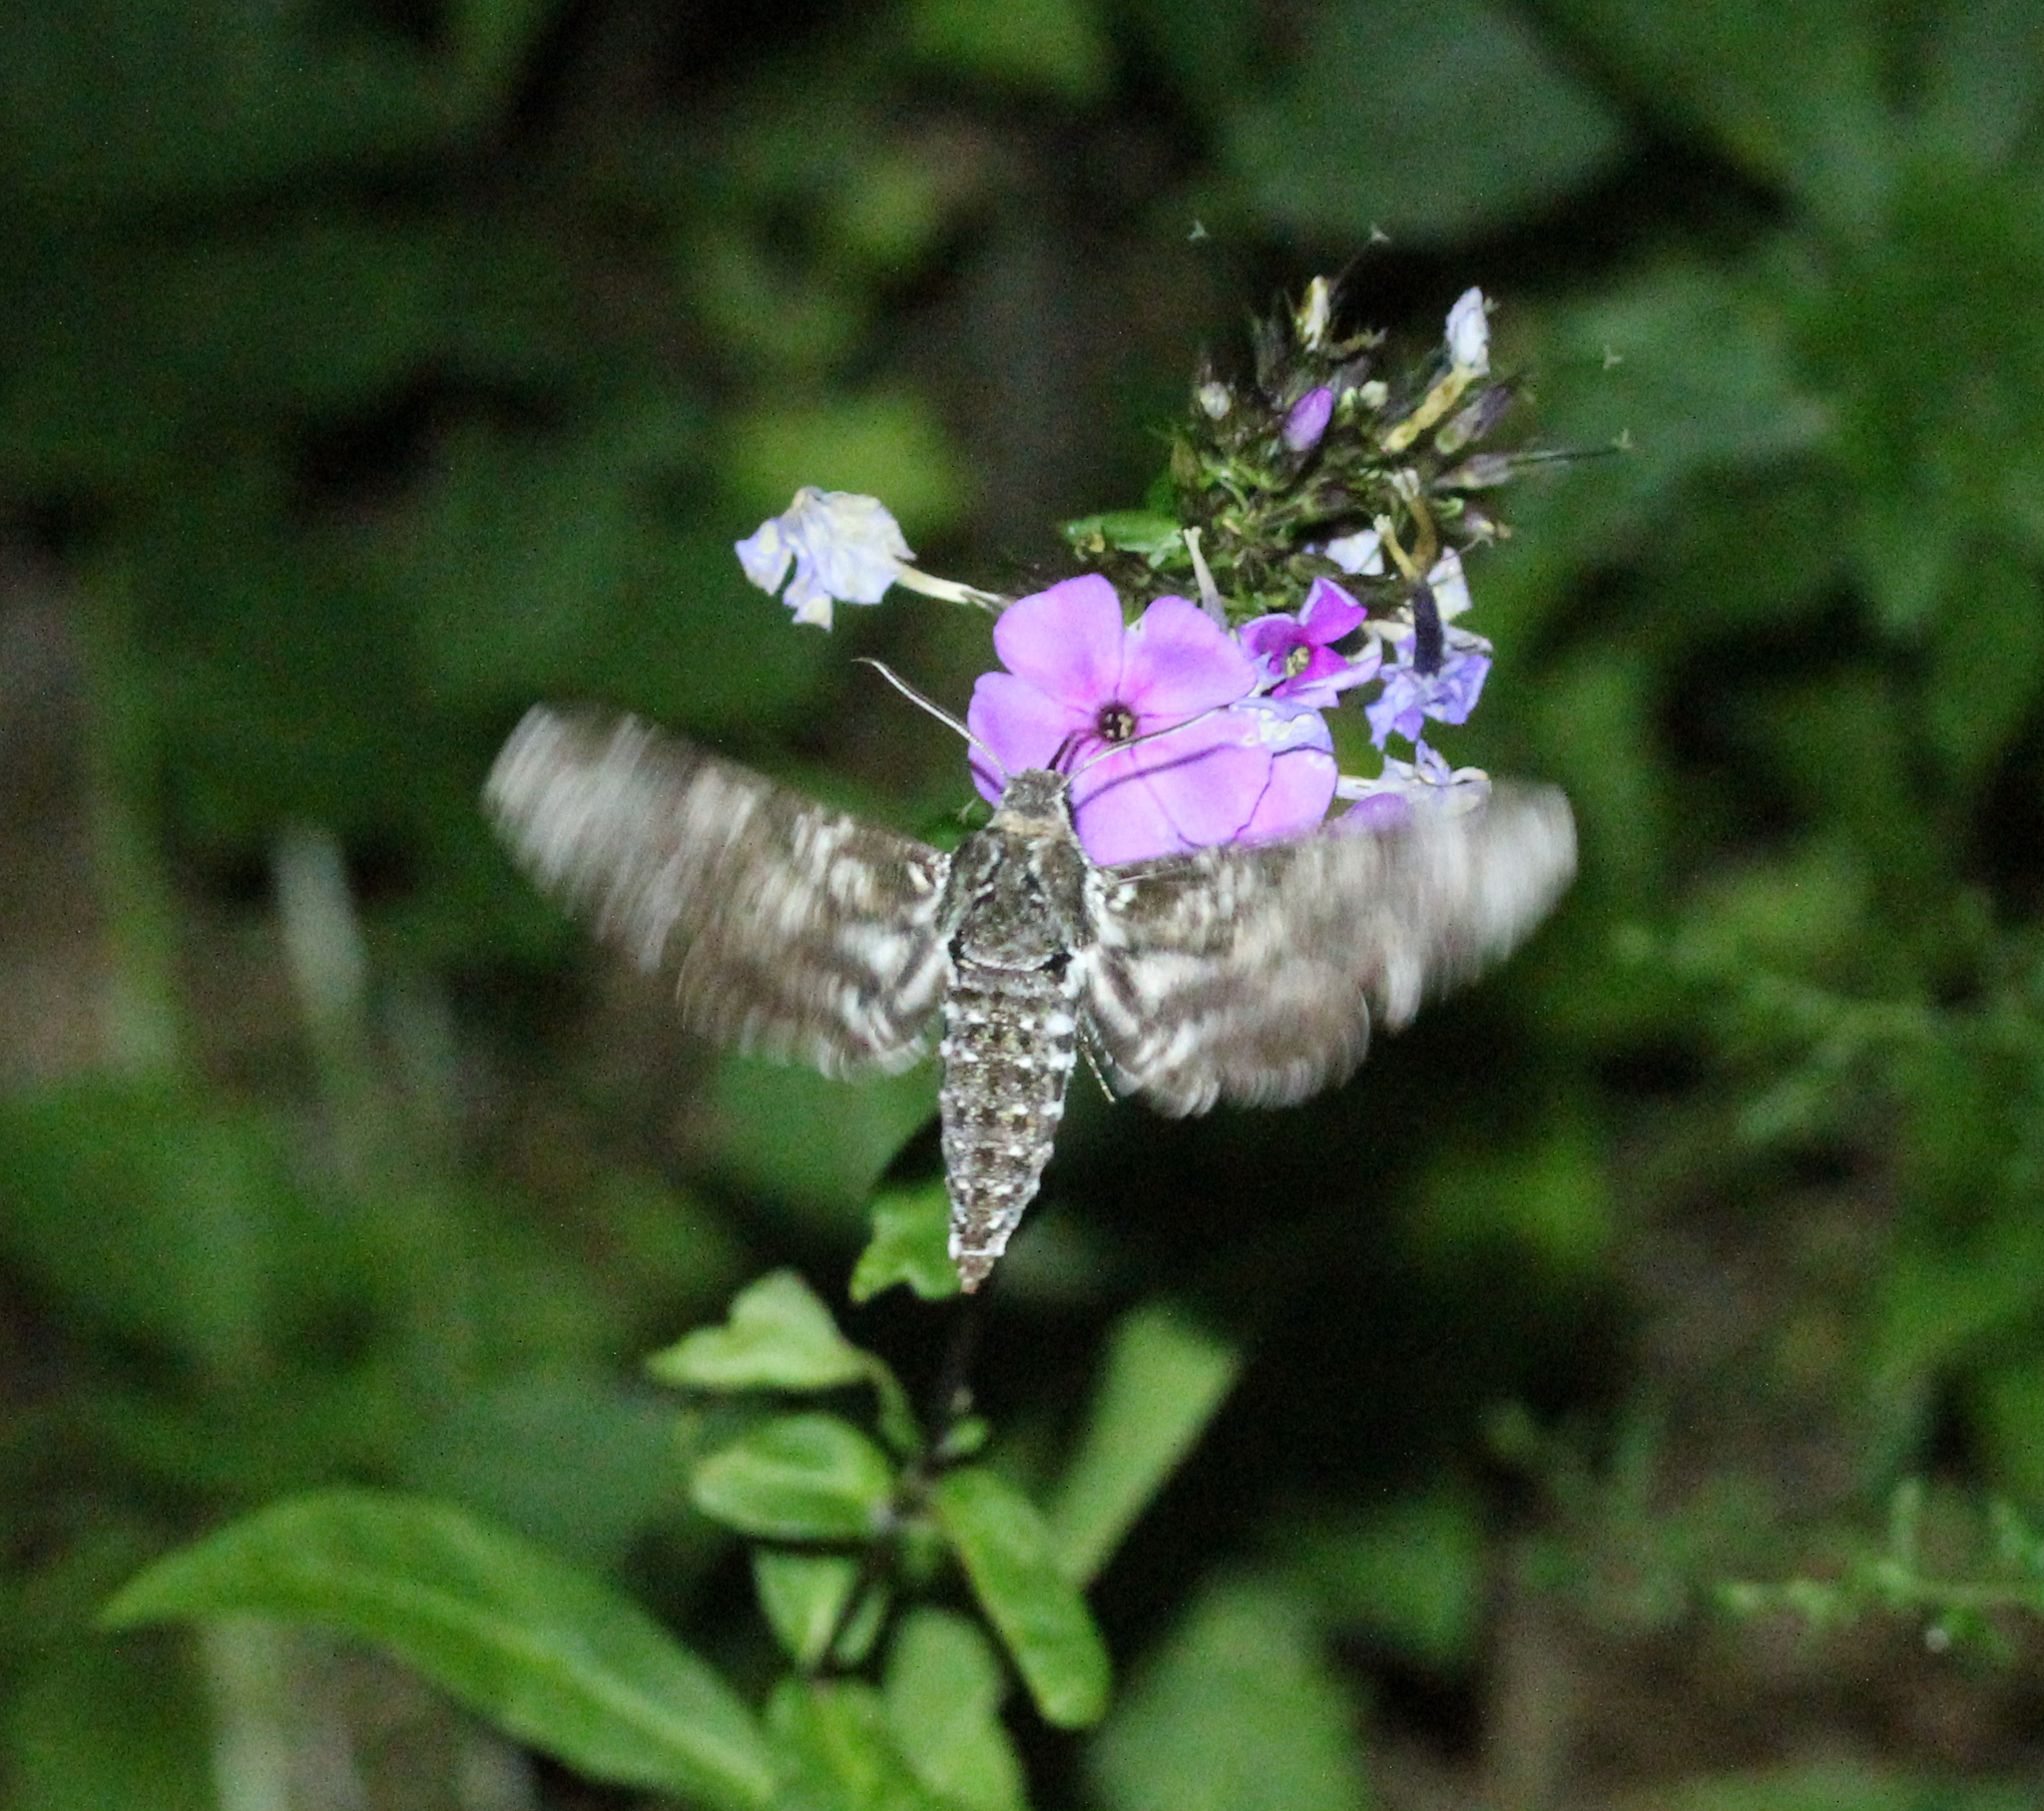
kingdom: Animalia
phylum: Arthropoda
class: Insecta
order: Lepidoptera
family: Sphingidae
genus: Dolba
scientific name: Dolba hyloeus
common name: Pawpaw sphinx
